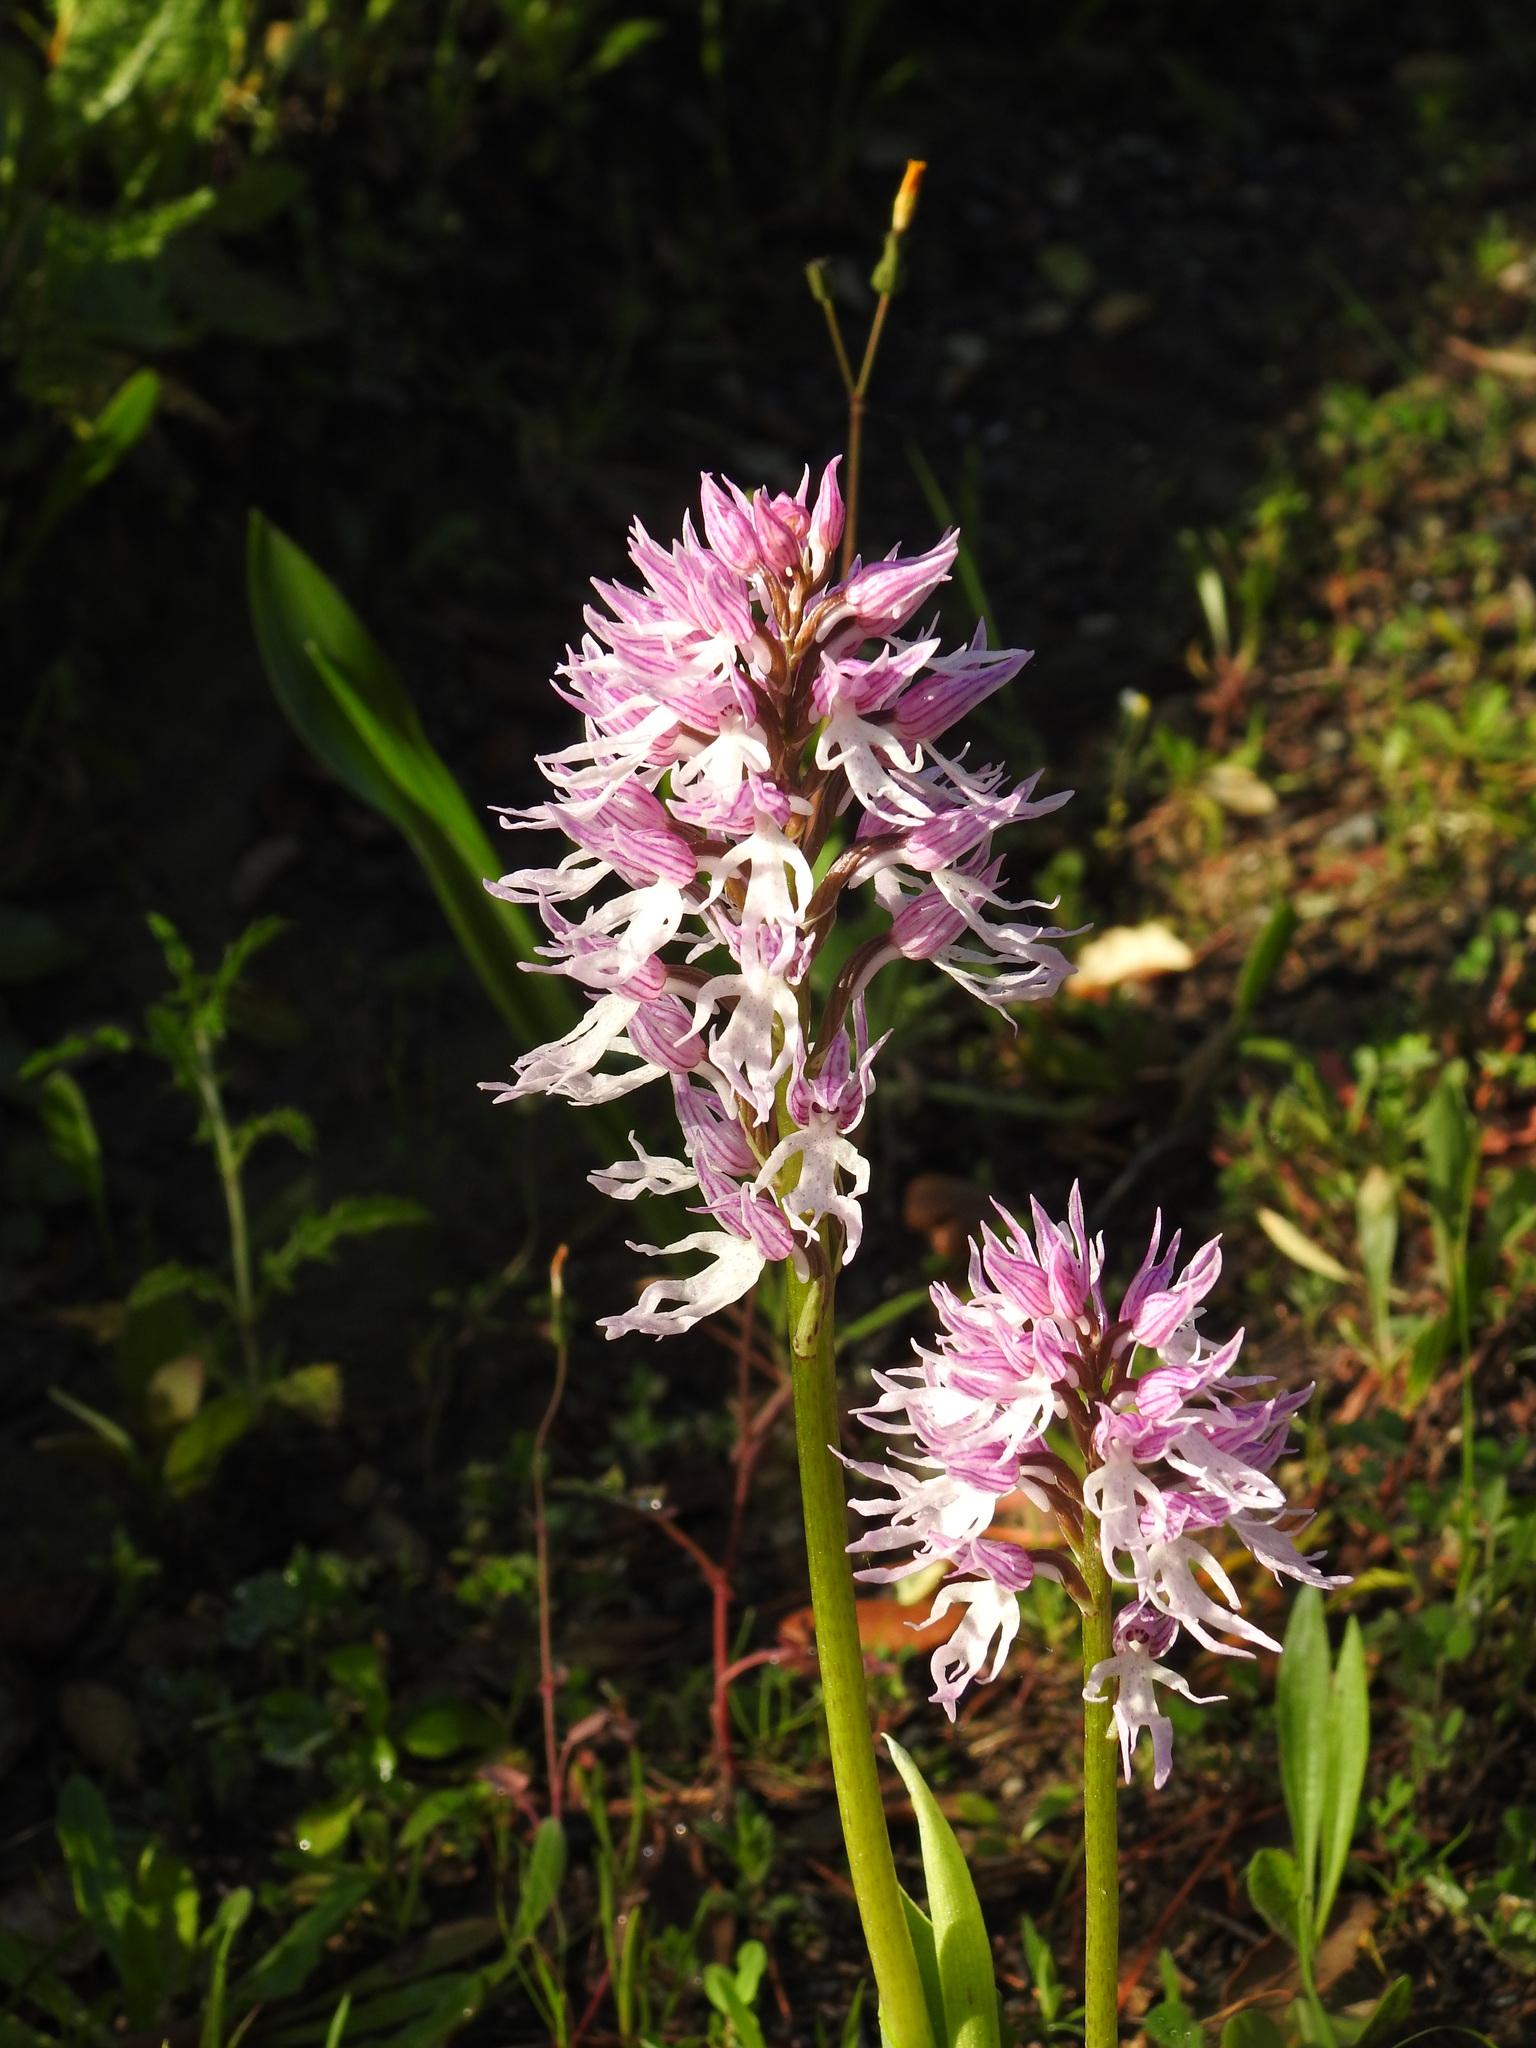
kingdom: Plantae
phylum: Tracheophyta
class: Liliopsida
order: Asparagales
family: Orchidaceae
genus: Orchis
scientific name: Orchis italica
